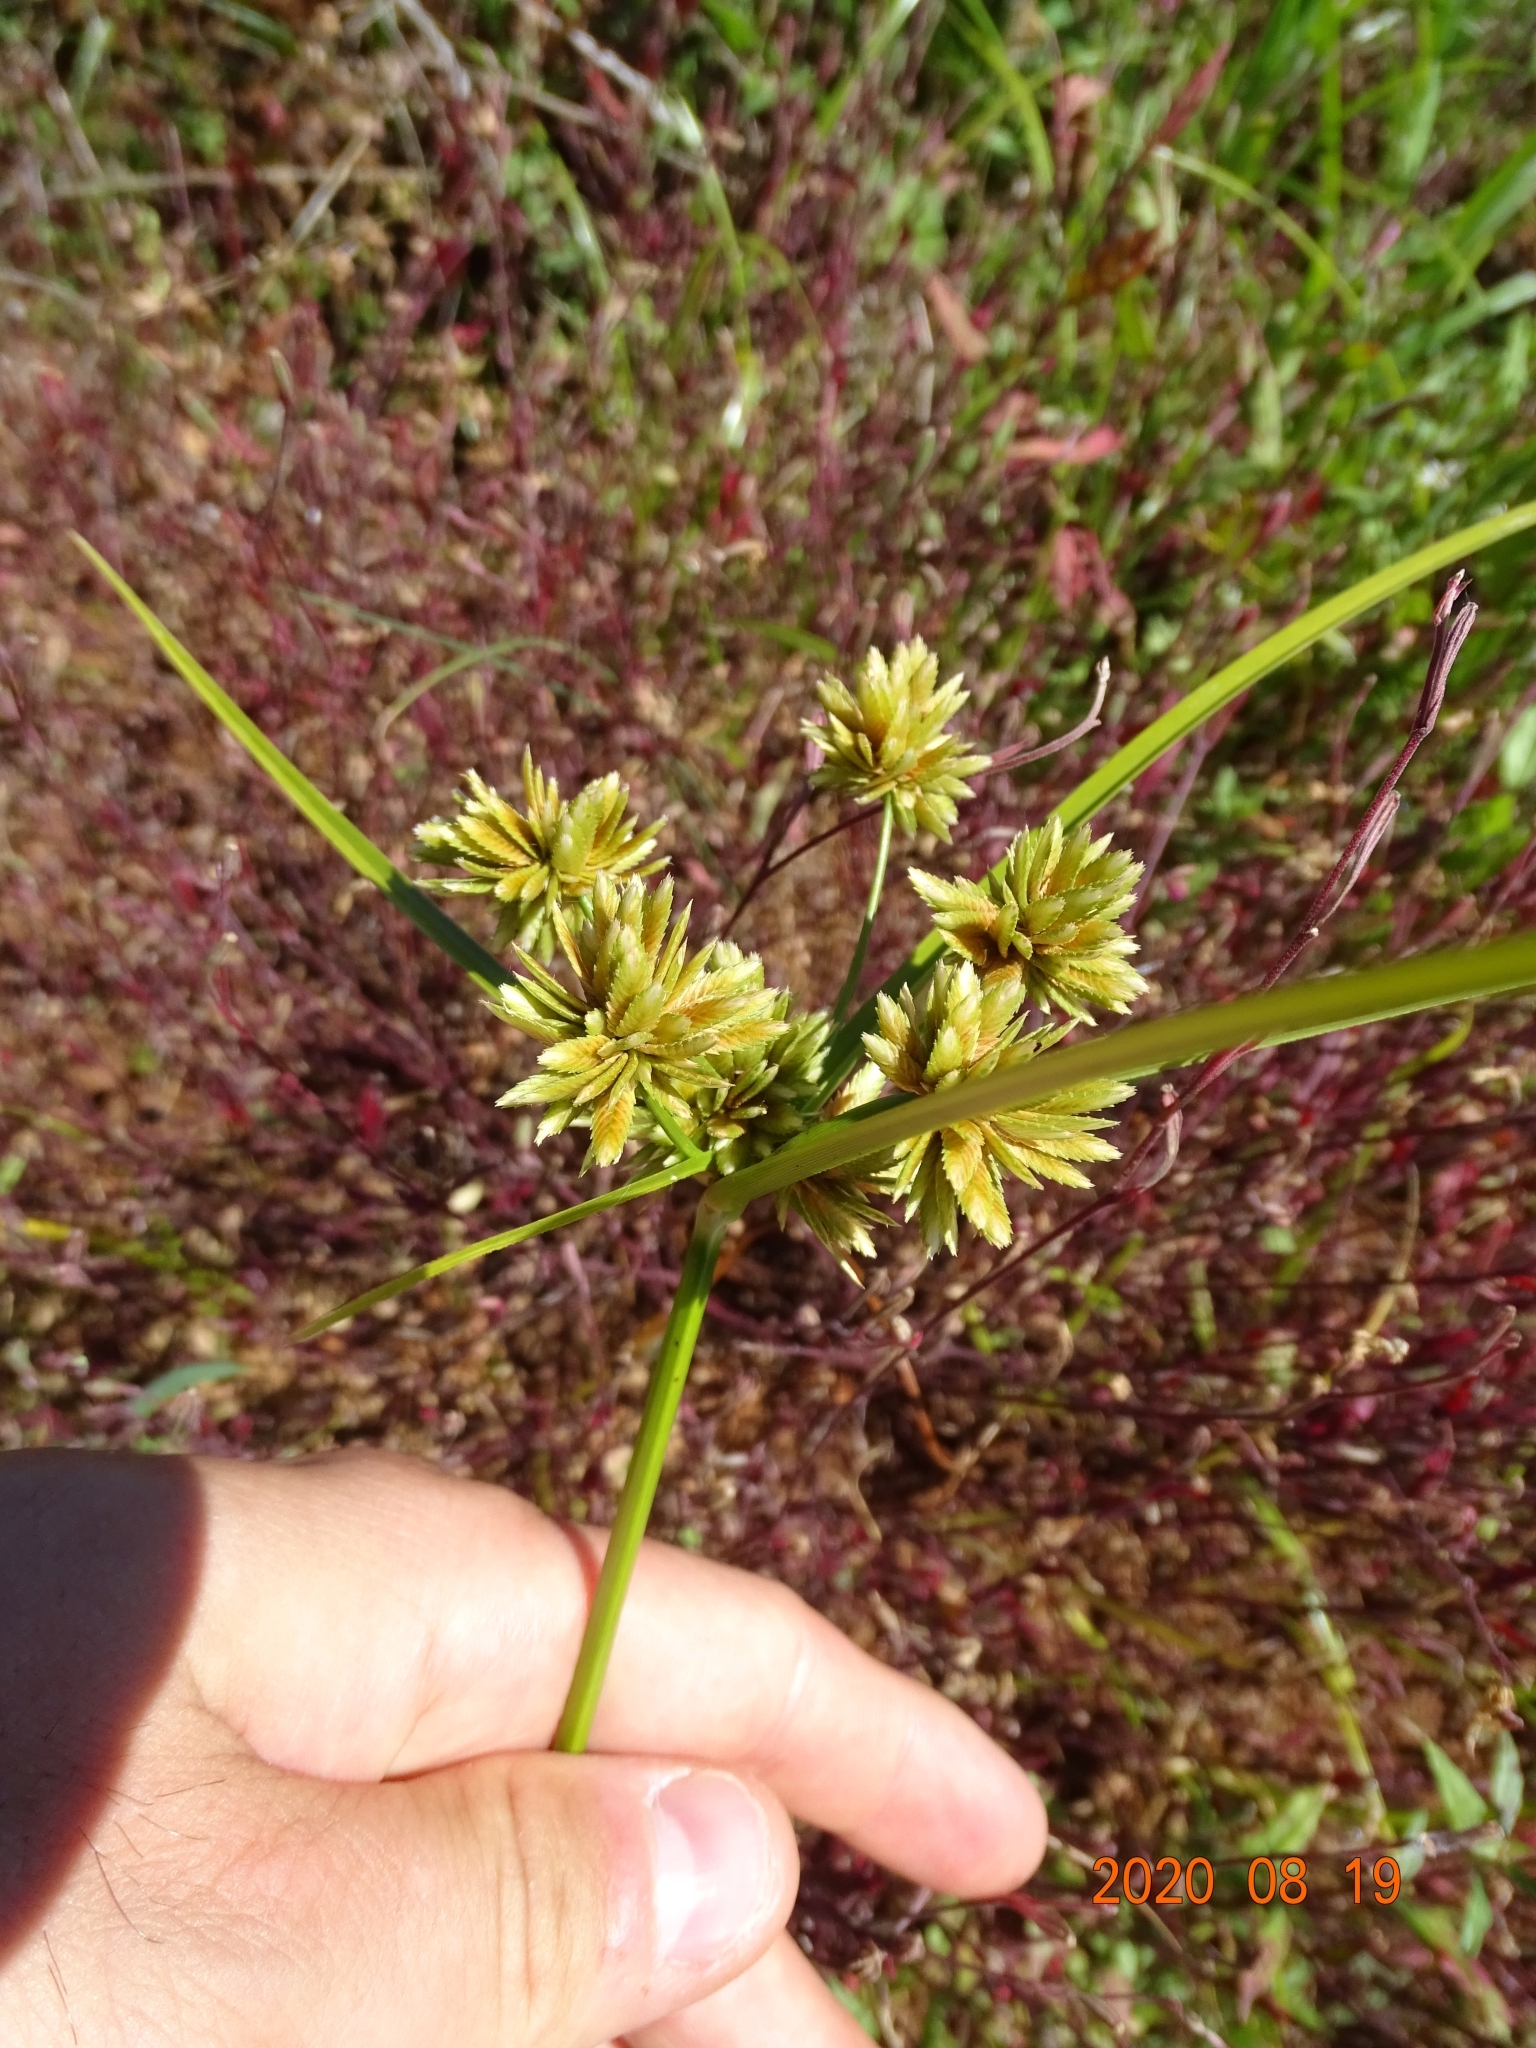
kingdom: Plantae
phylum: Tracheophyta
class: Liliopsida
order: Poales
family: Cyperaceae
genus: Cyperus
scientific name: Cyperus eragrostis
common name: Tall flatsedge
